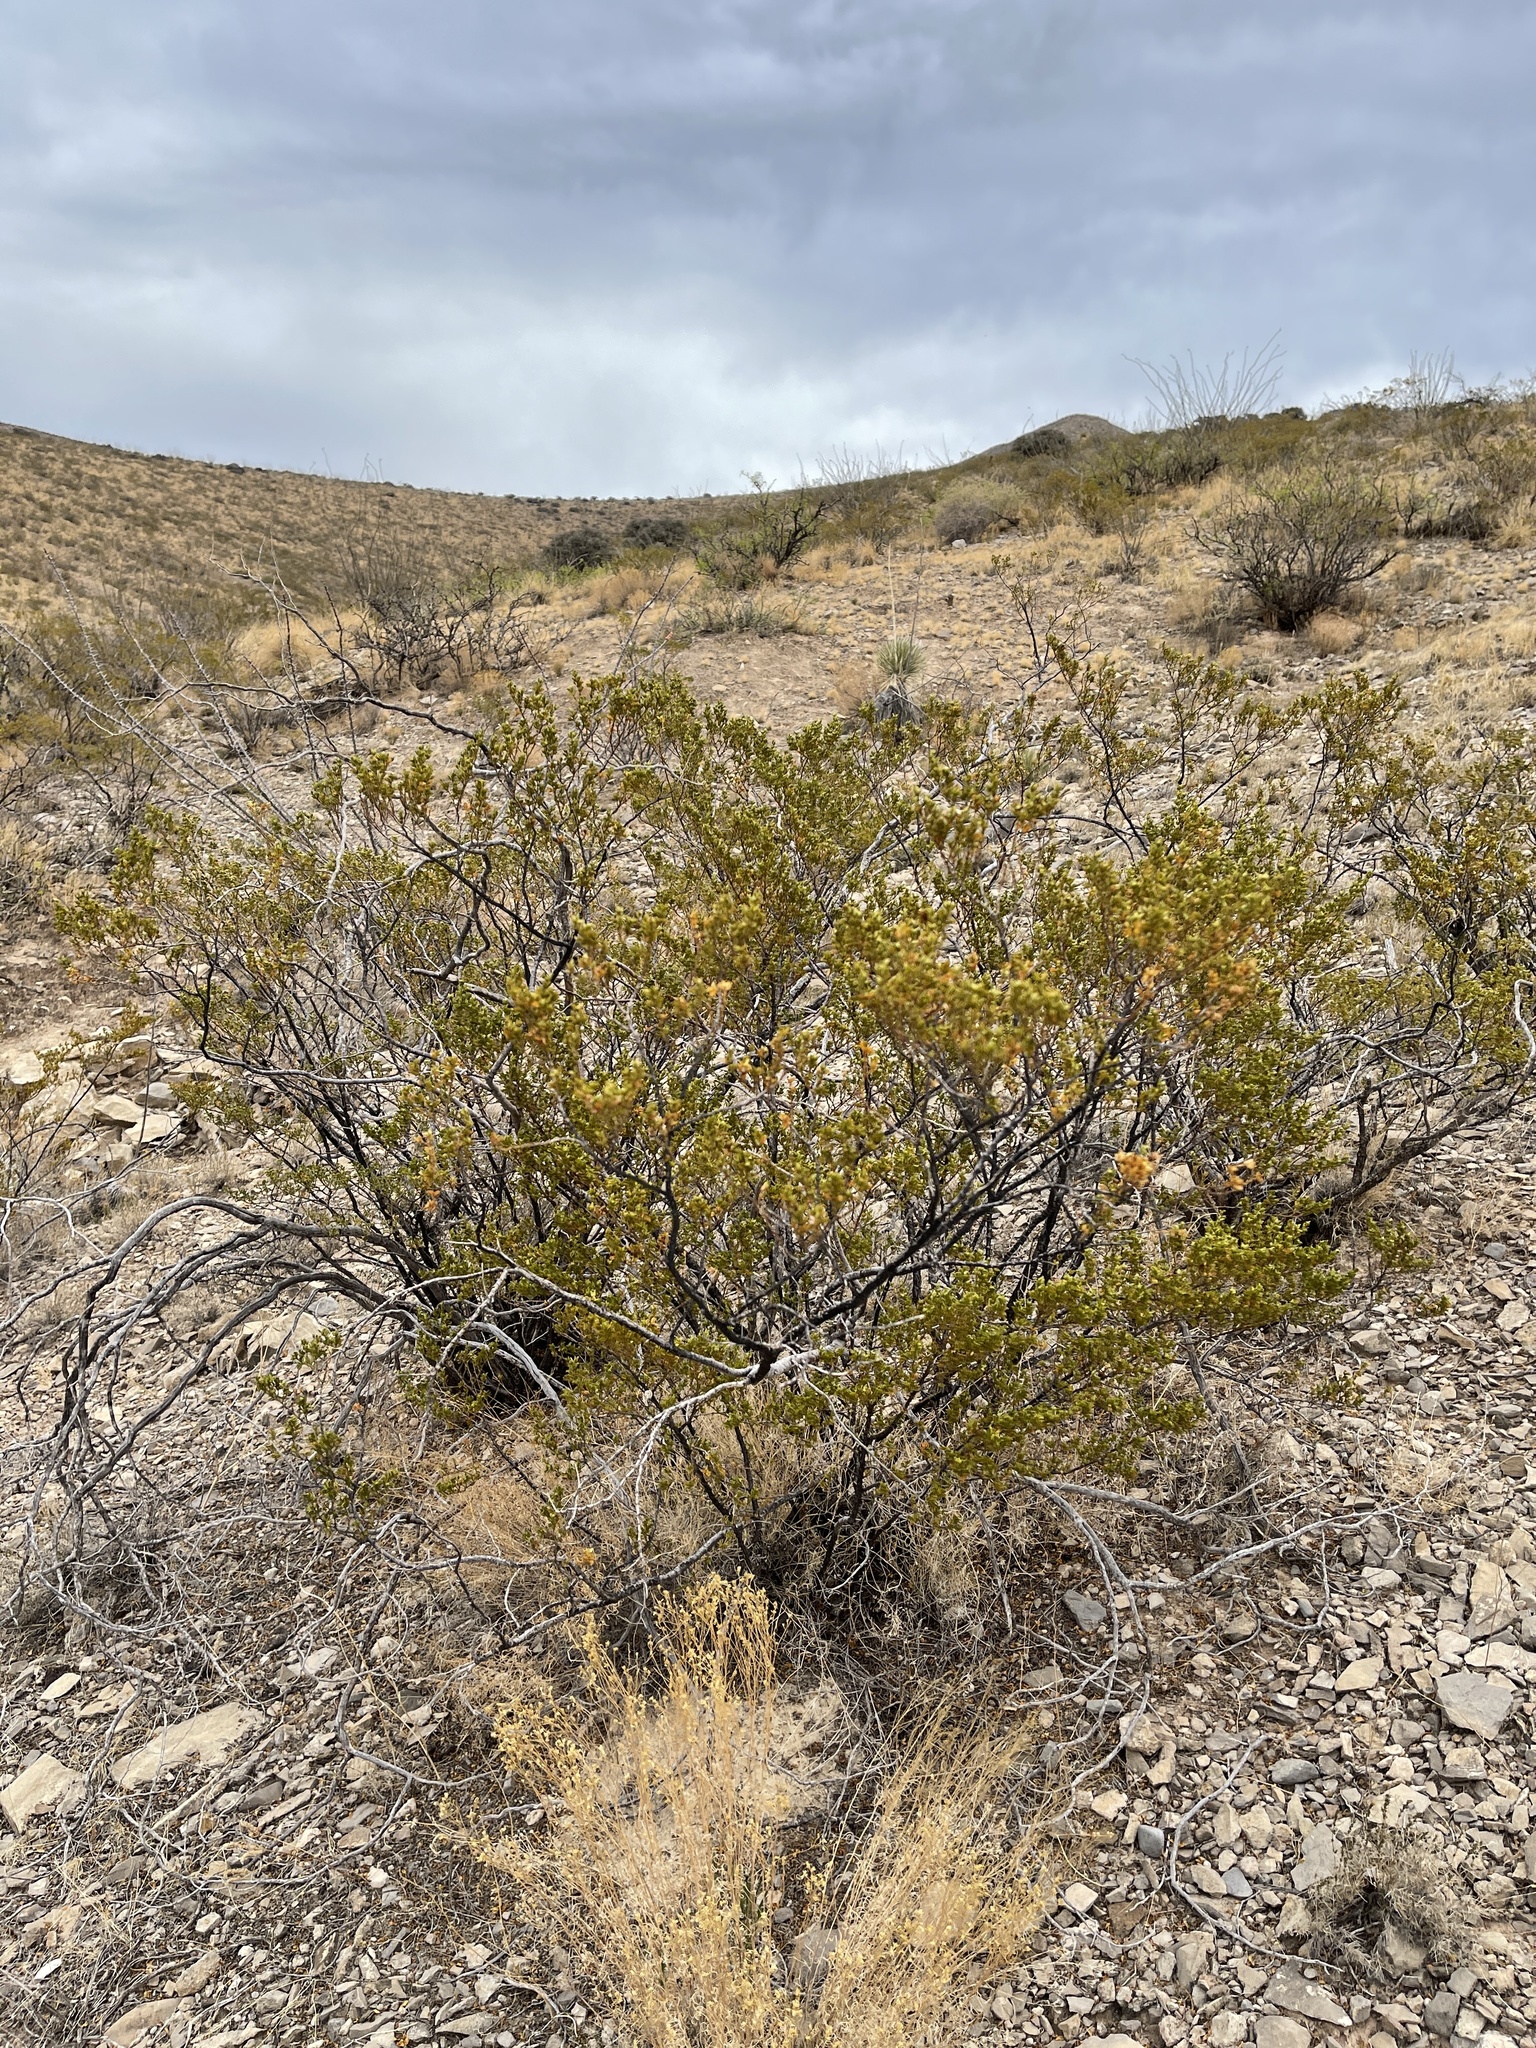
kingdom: Plantae
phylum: Tracheophyta
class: Magnoliopsida
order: Zygophyllales
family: Zygophyllaceae
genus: Larrea
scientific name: Larrea tridentata
